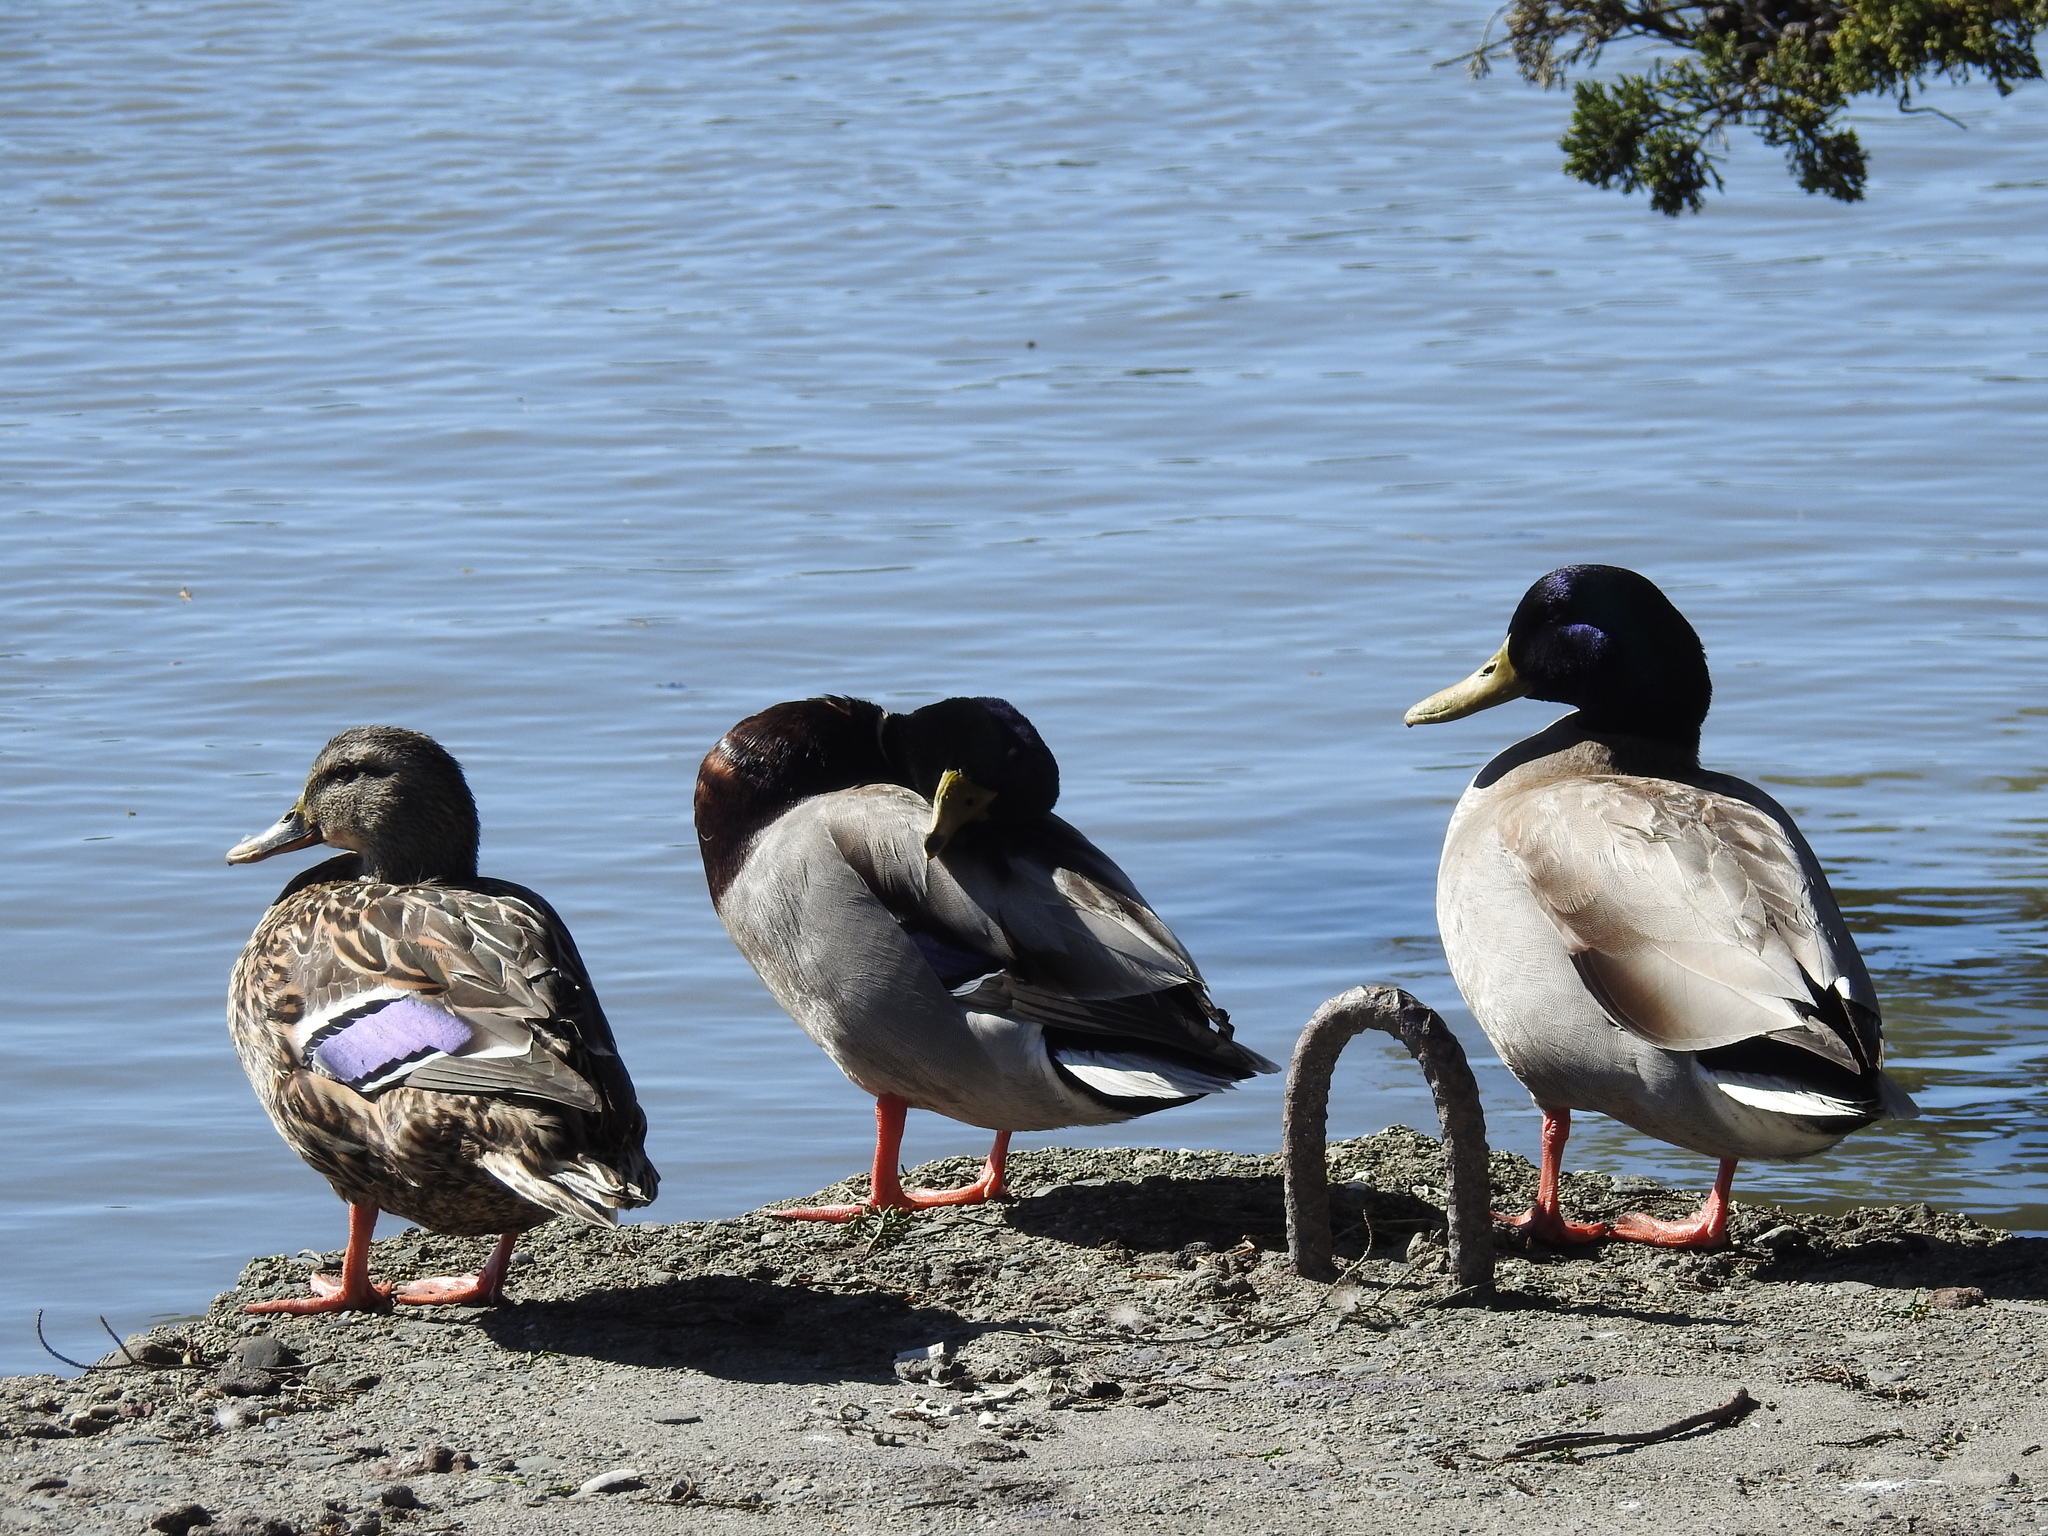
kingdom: Animalia
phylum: Chordata
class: Aves
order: Anseriformes
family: Anatidae
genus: Anas
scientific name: Anas platyrhynchos
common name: Mallard
